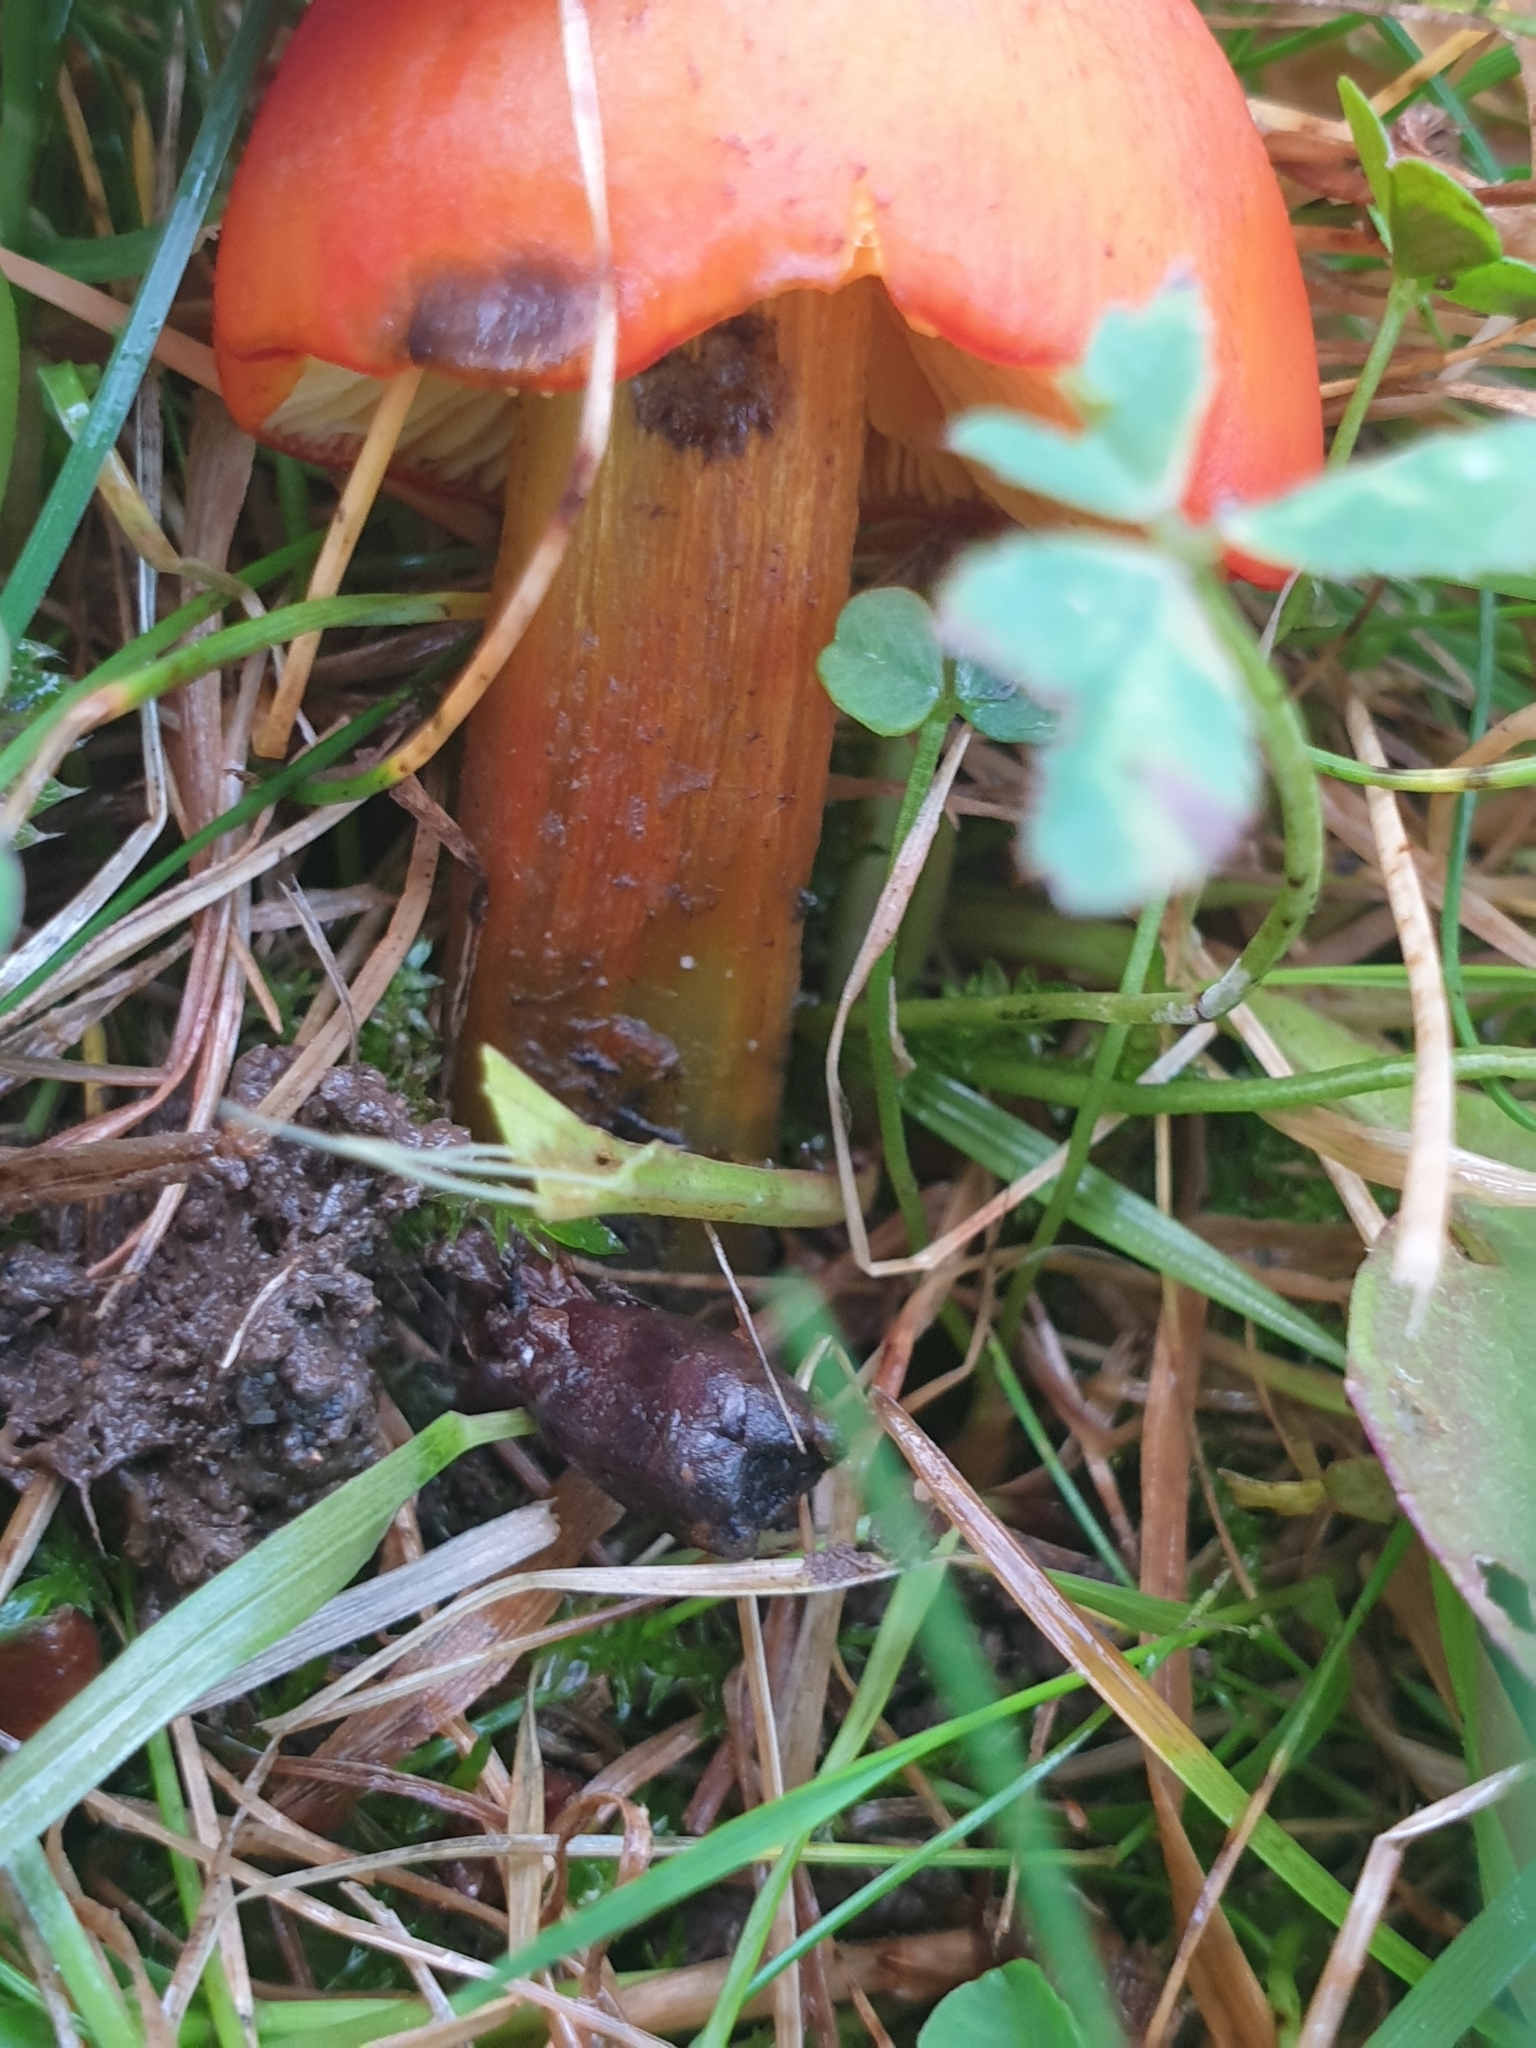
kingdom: Fungi
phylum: Basidiomycota
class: Agaricomycetes
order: Agaricales
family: Hygrophoraceae
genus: Hygrocybe
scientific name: Hygrocybe conica
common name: Blackening wax-cap
